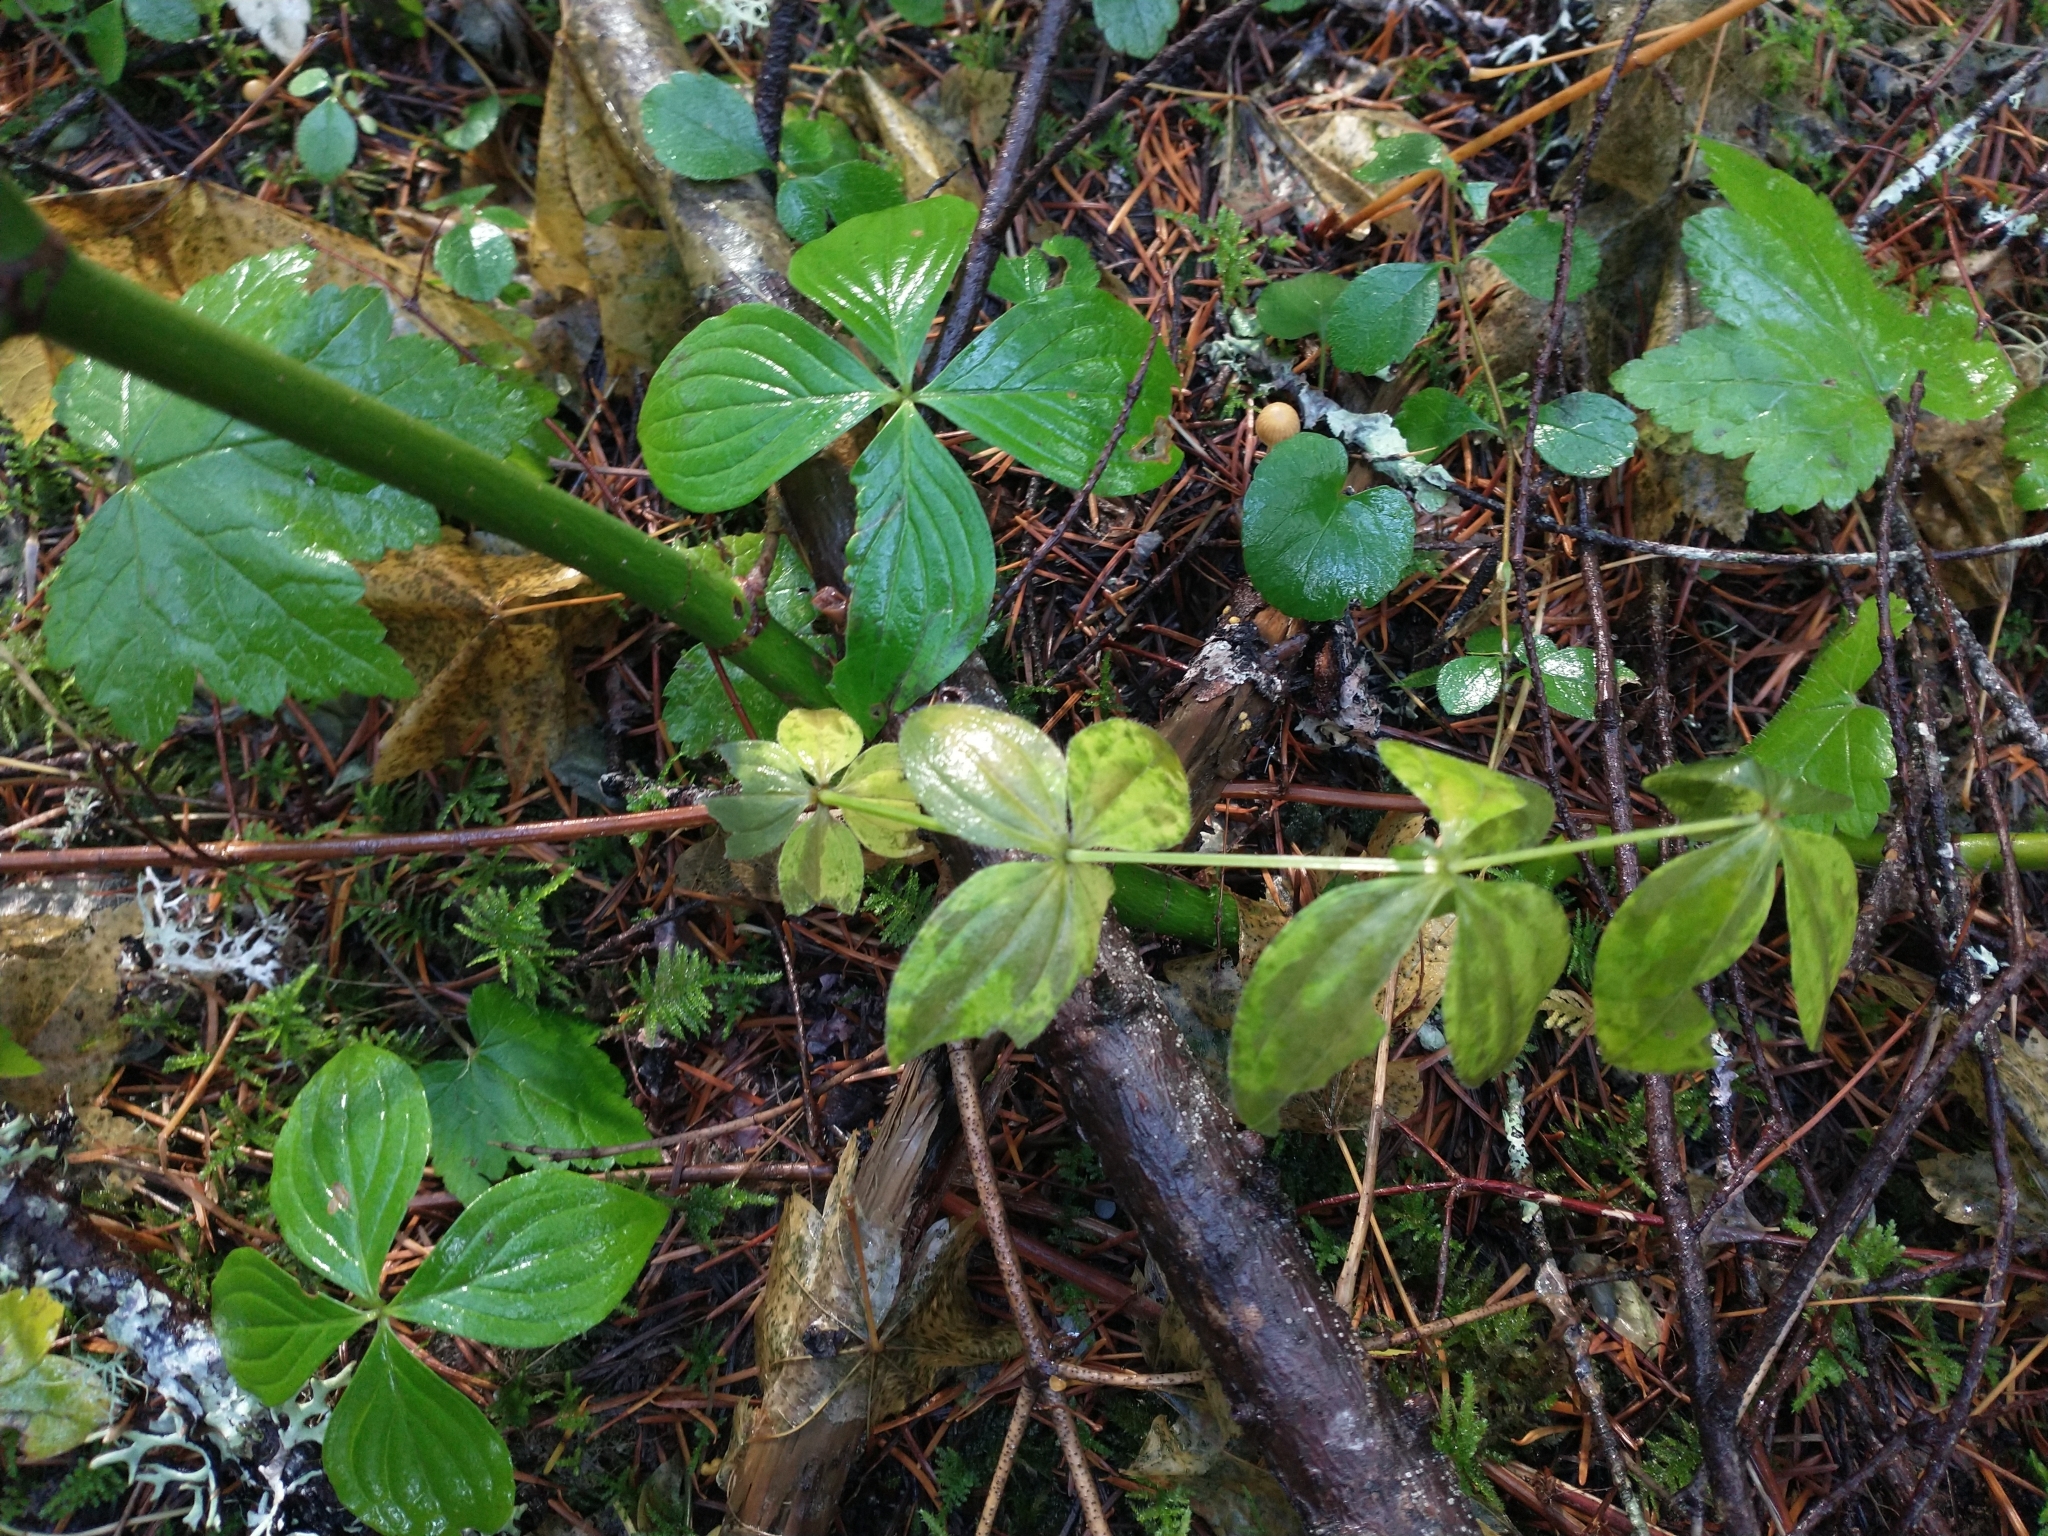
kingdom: Plantae
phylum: Tracheophyta
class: Magnoliopsida
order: Gentianales
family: Rubiaceae
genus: Galium
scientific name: Galium oreganum
